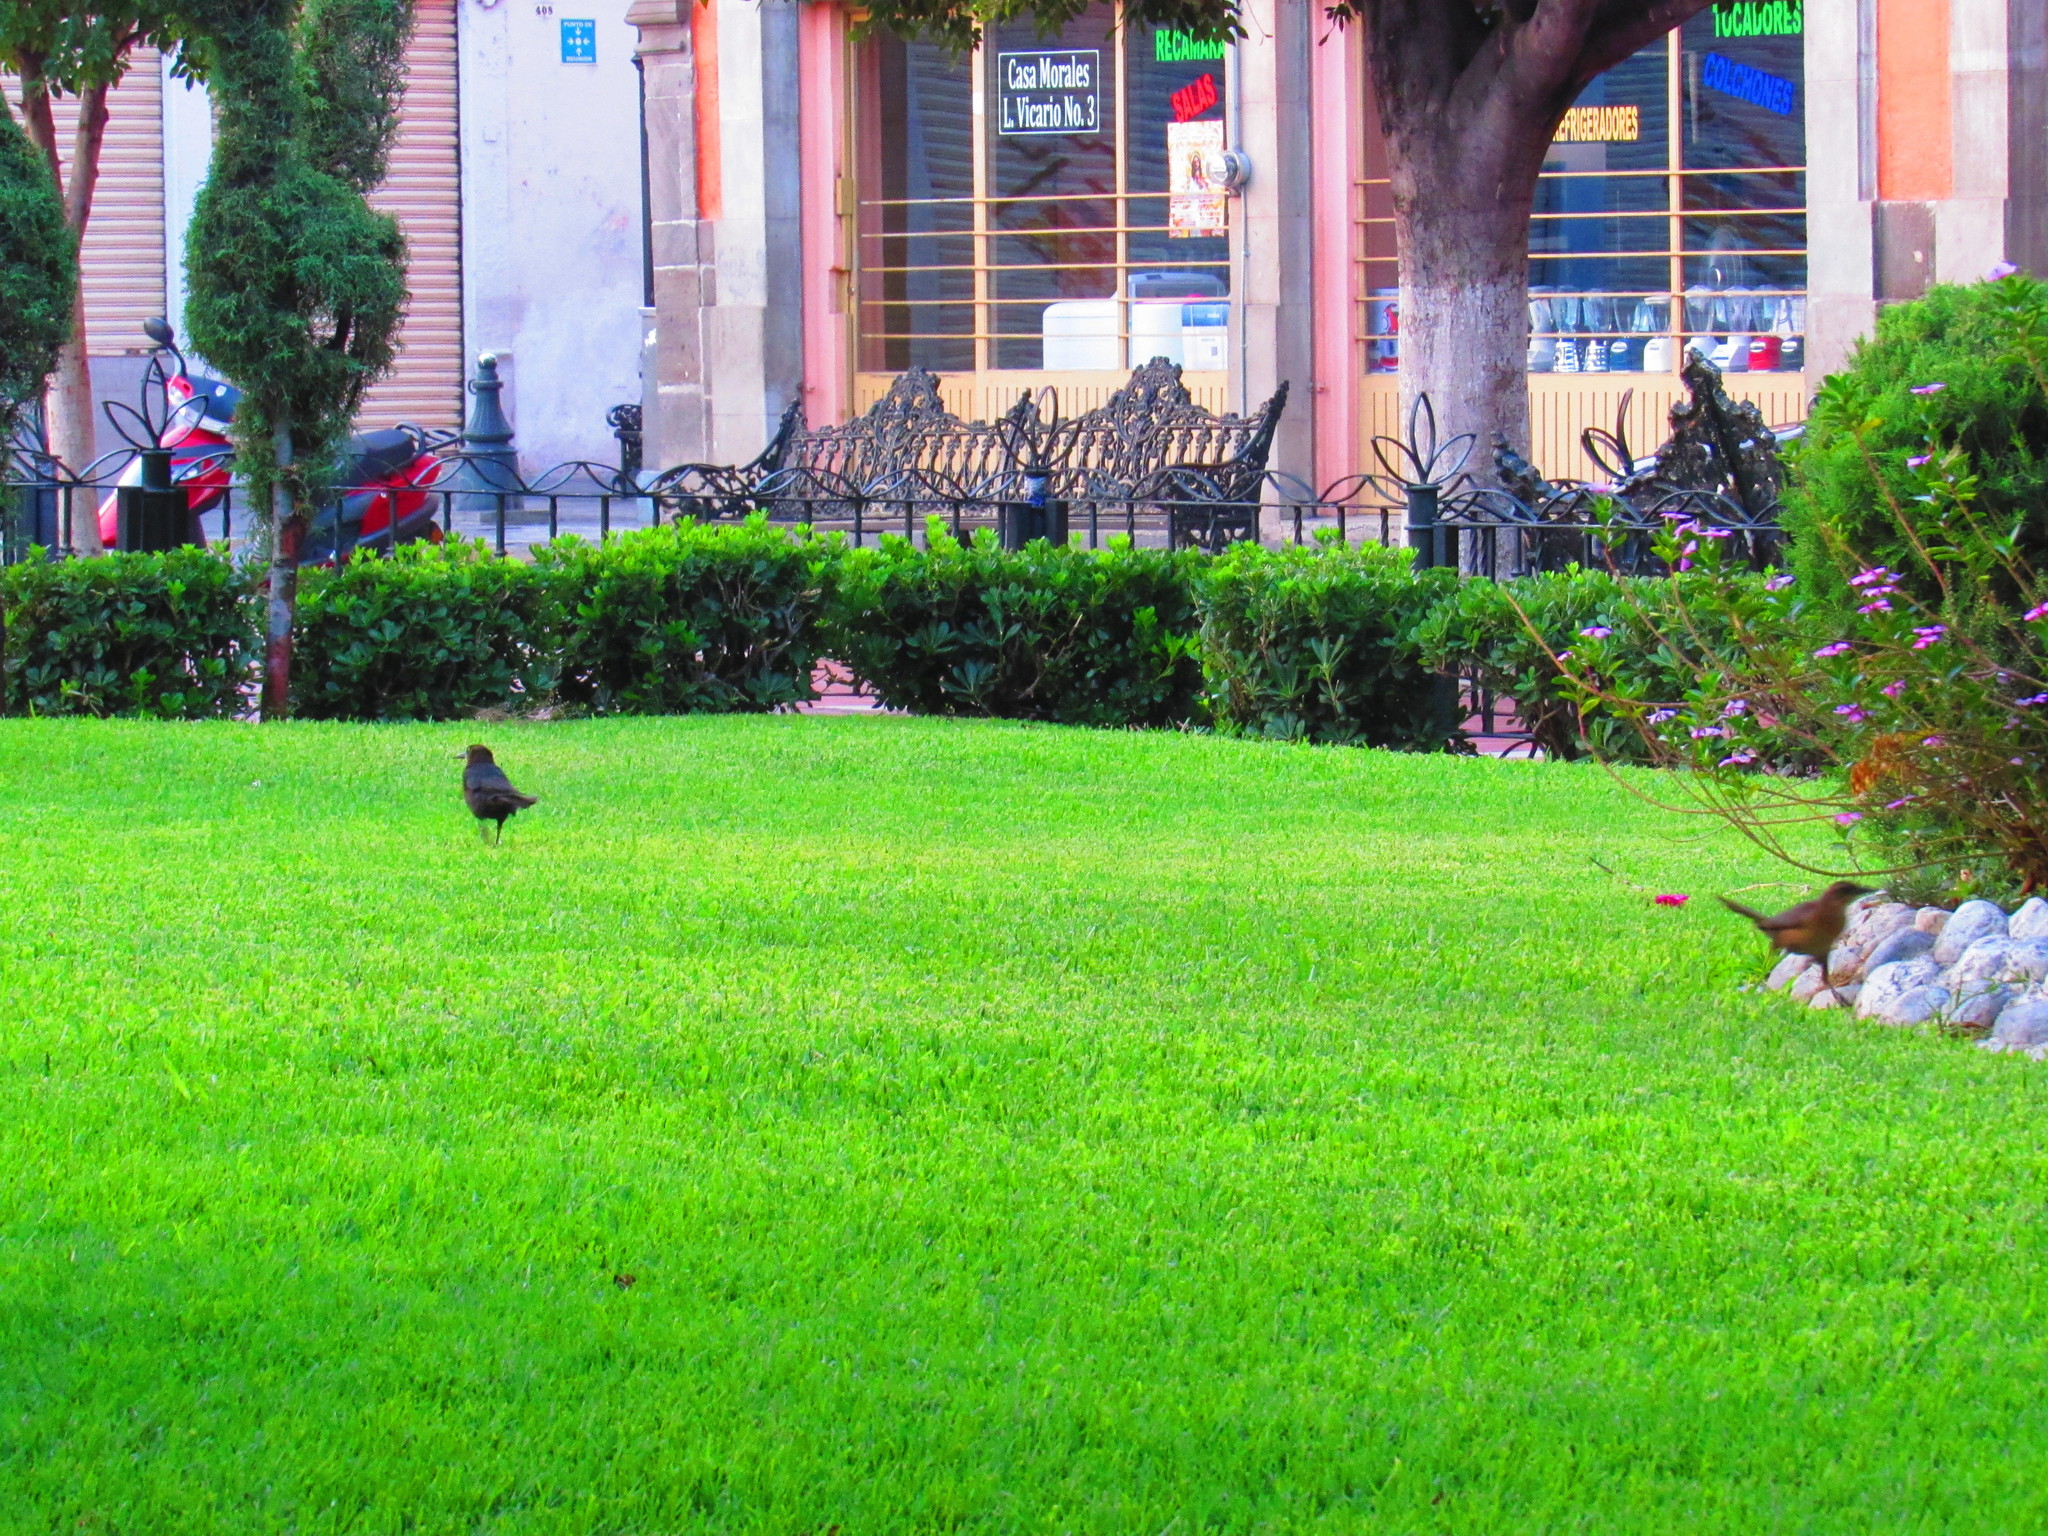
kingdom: Animalia
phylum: Chordata
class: Aves
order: Passeriformes
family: Icteridae
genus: Quiscalus
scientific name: Quiscalus mexicanus
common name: Great-tailed grackle
